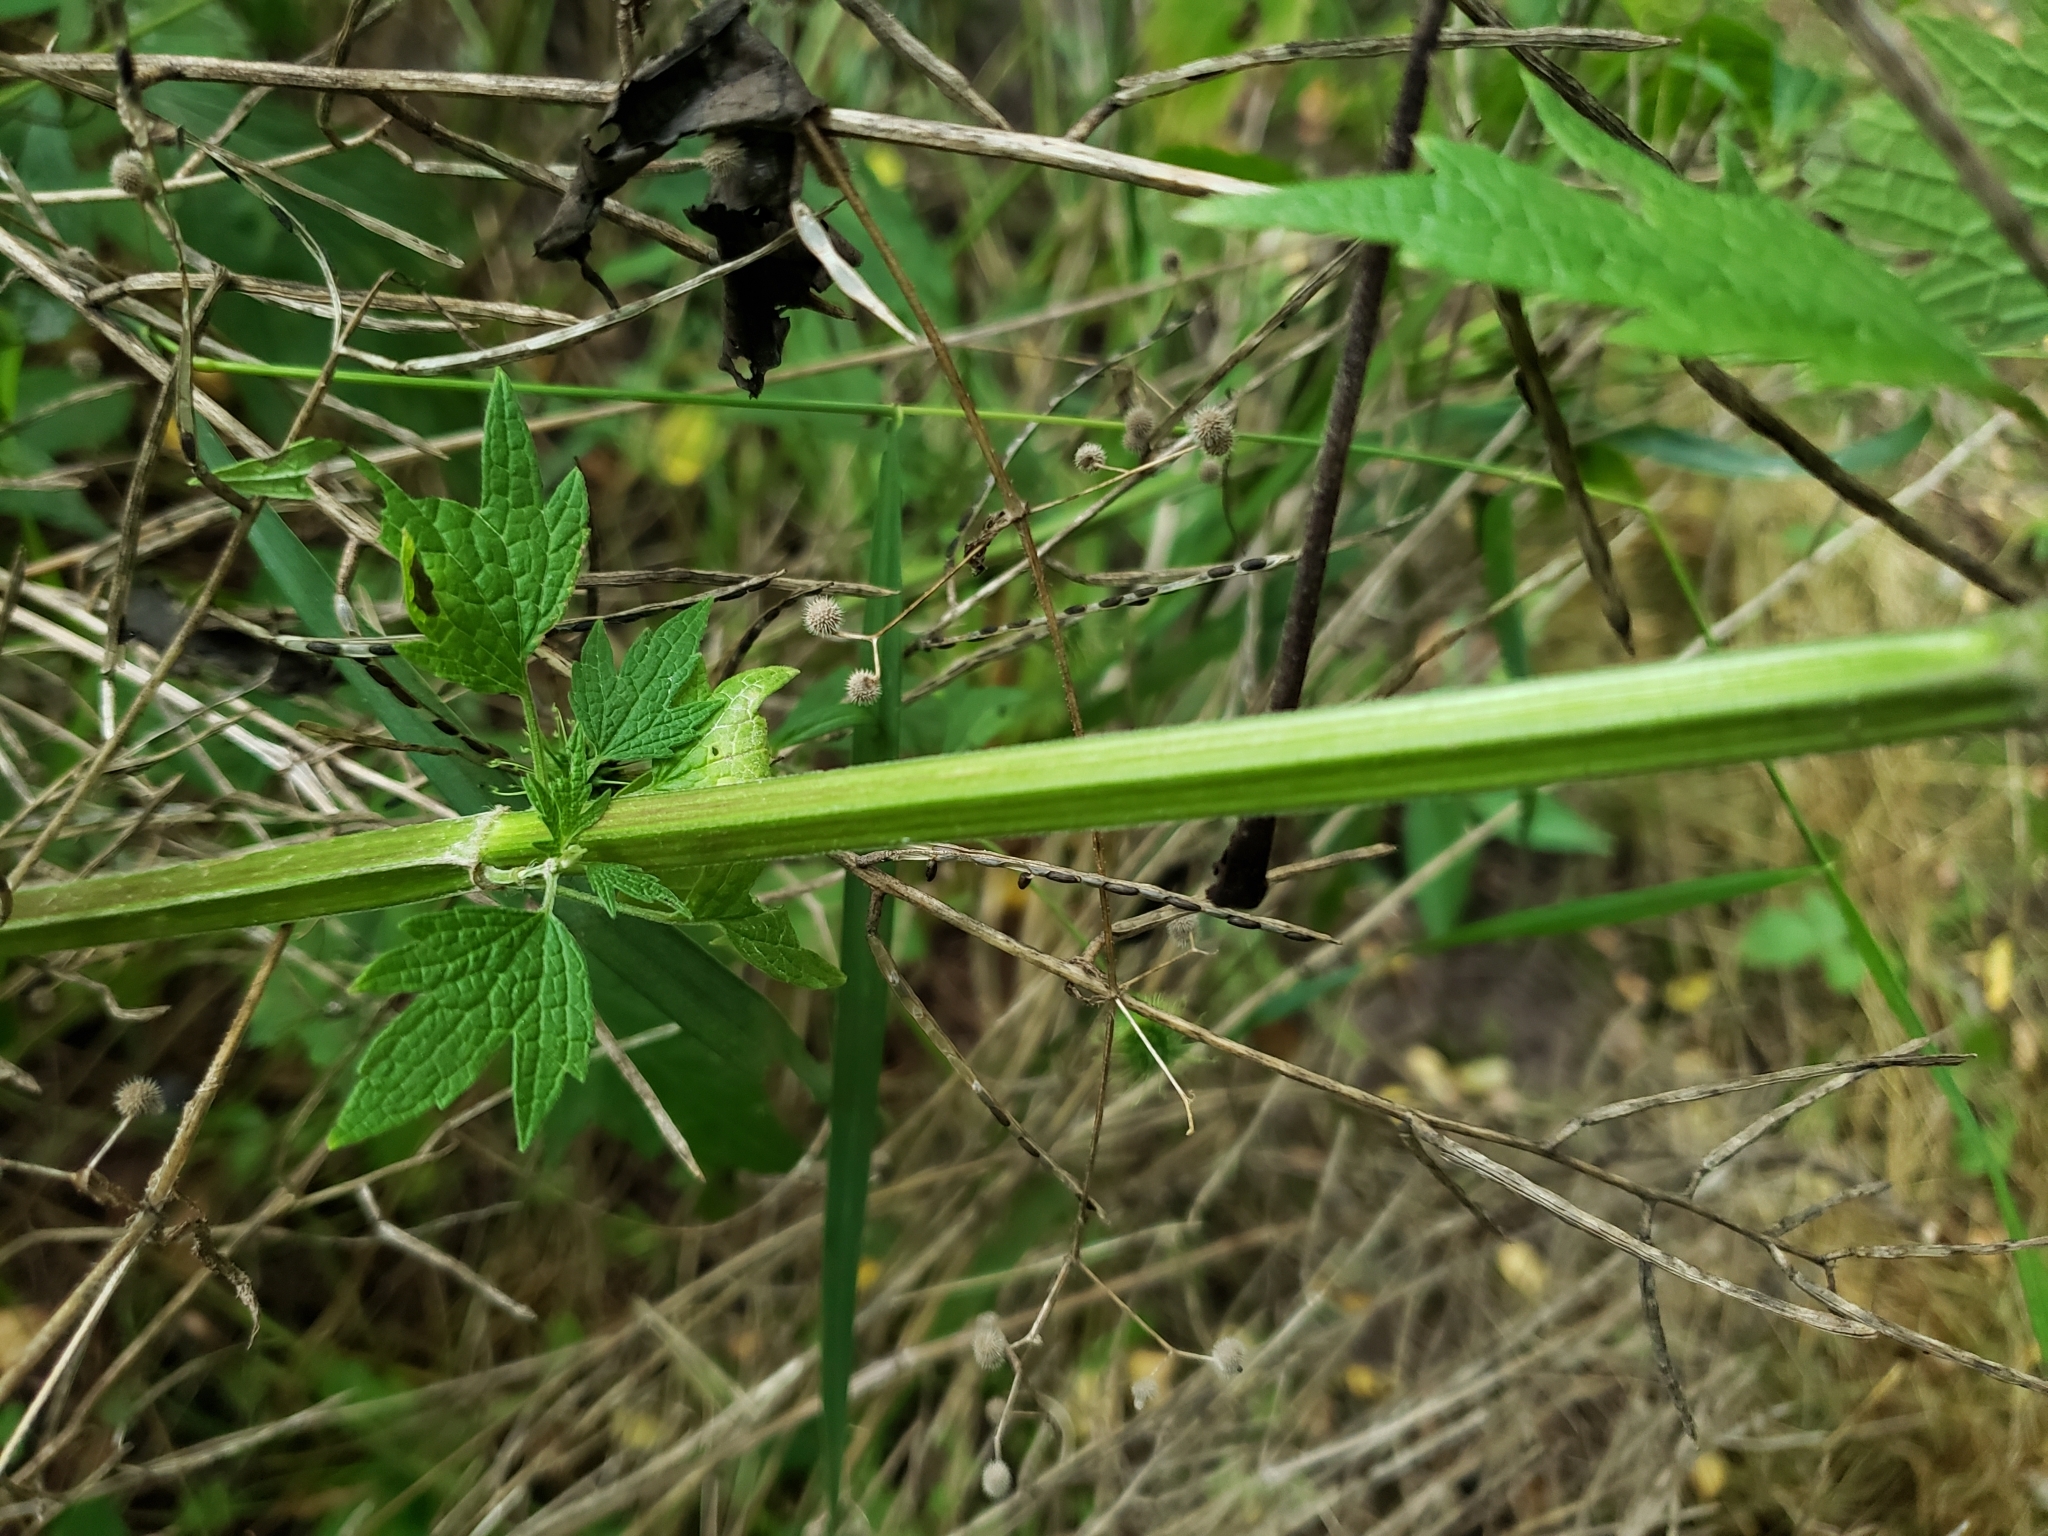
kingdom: Plantae
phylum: Tracheophyta
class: Magnoliopsida
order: Lamiales
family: Lamiaceae
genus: Leonurus
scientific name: Leonurus cardiaca
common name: Motherwort
